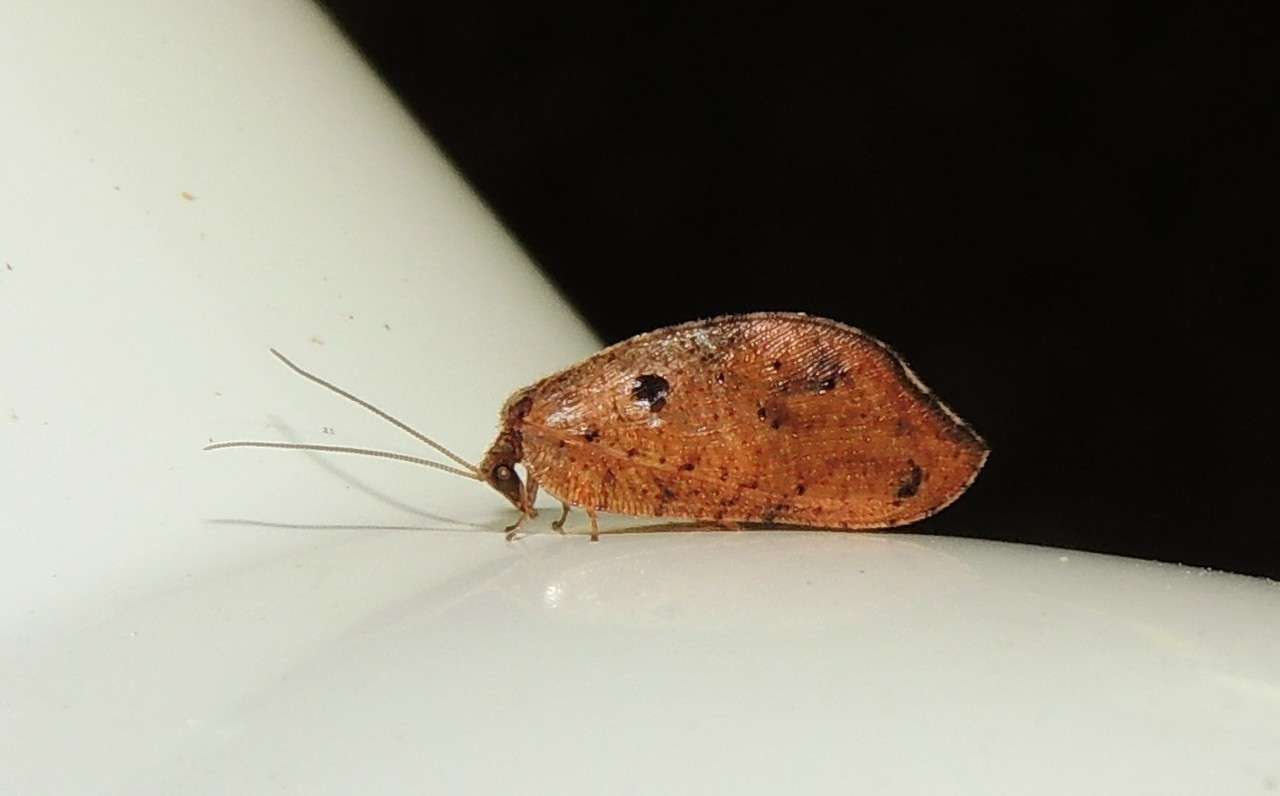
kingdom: Animalia
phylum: Arthropoda
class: Insecta
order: Neuroptera
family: Hemerobiidae
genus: Drepanacra
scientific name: Drepanacra binocula
